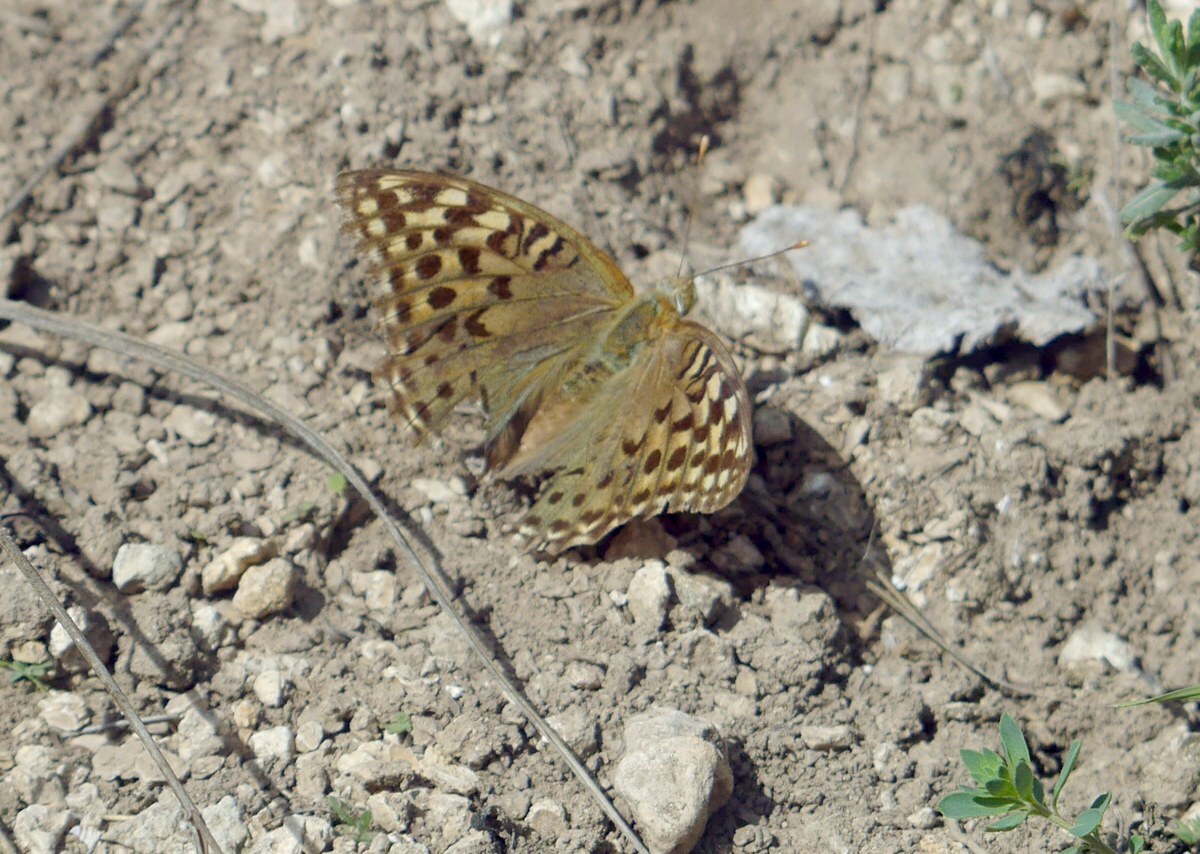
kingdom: Animalia
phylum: Arthropoda
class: Insecta
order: Lepidoptera
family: Nymphalidae
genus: Damora
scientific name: Damora pandora
